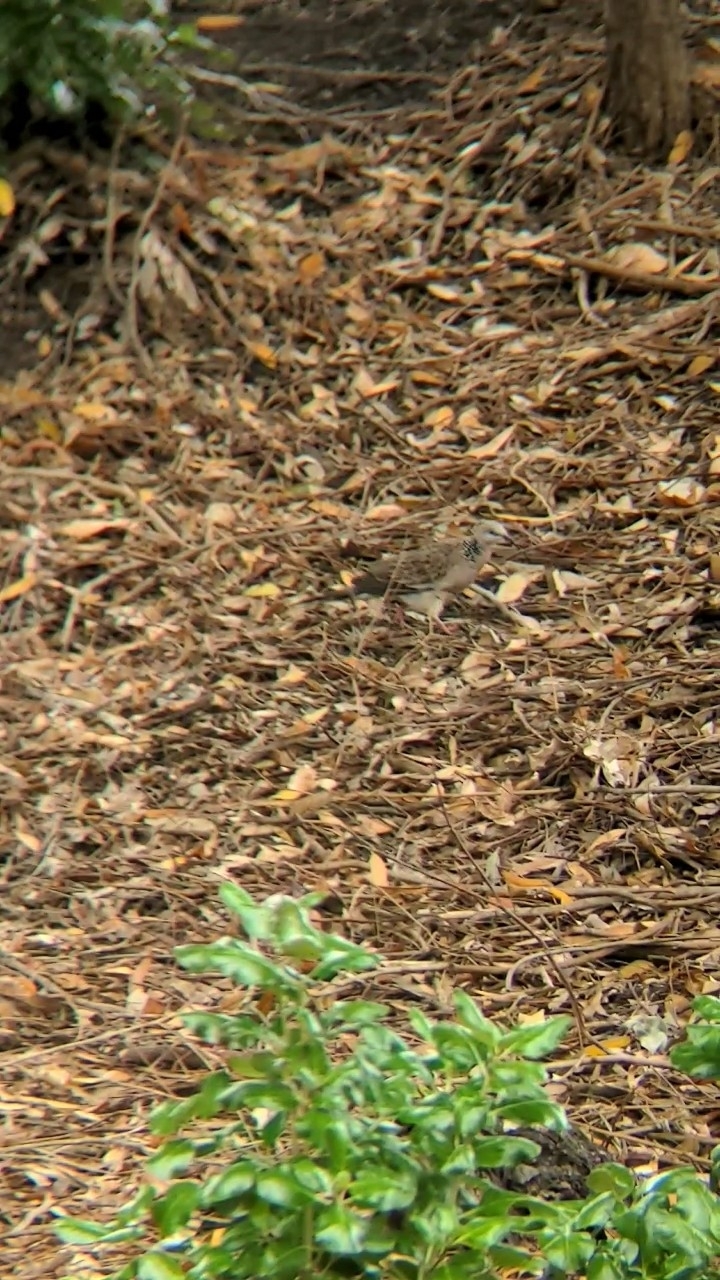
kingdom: Animalia
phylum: Chordata
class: Aves
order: Columbiformes
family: Columbidae
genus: Spilopelia
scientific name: Spilopelia chinensis
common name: Spotted dove
